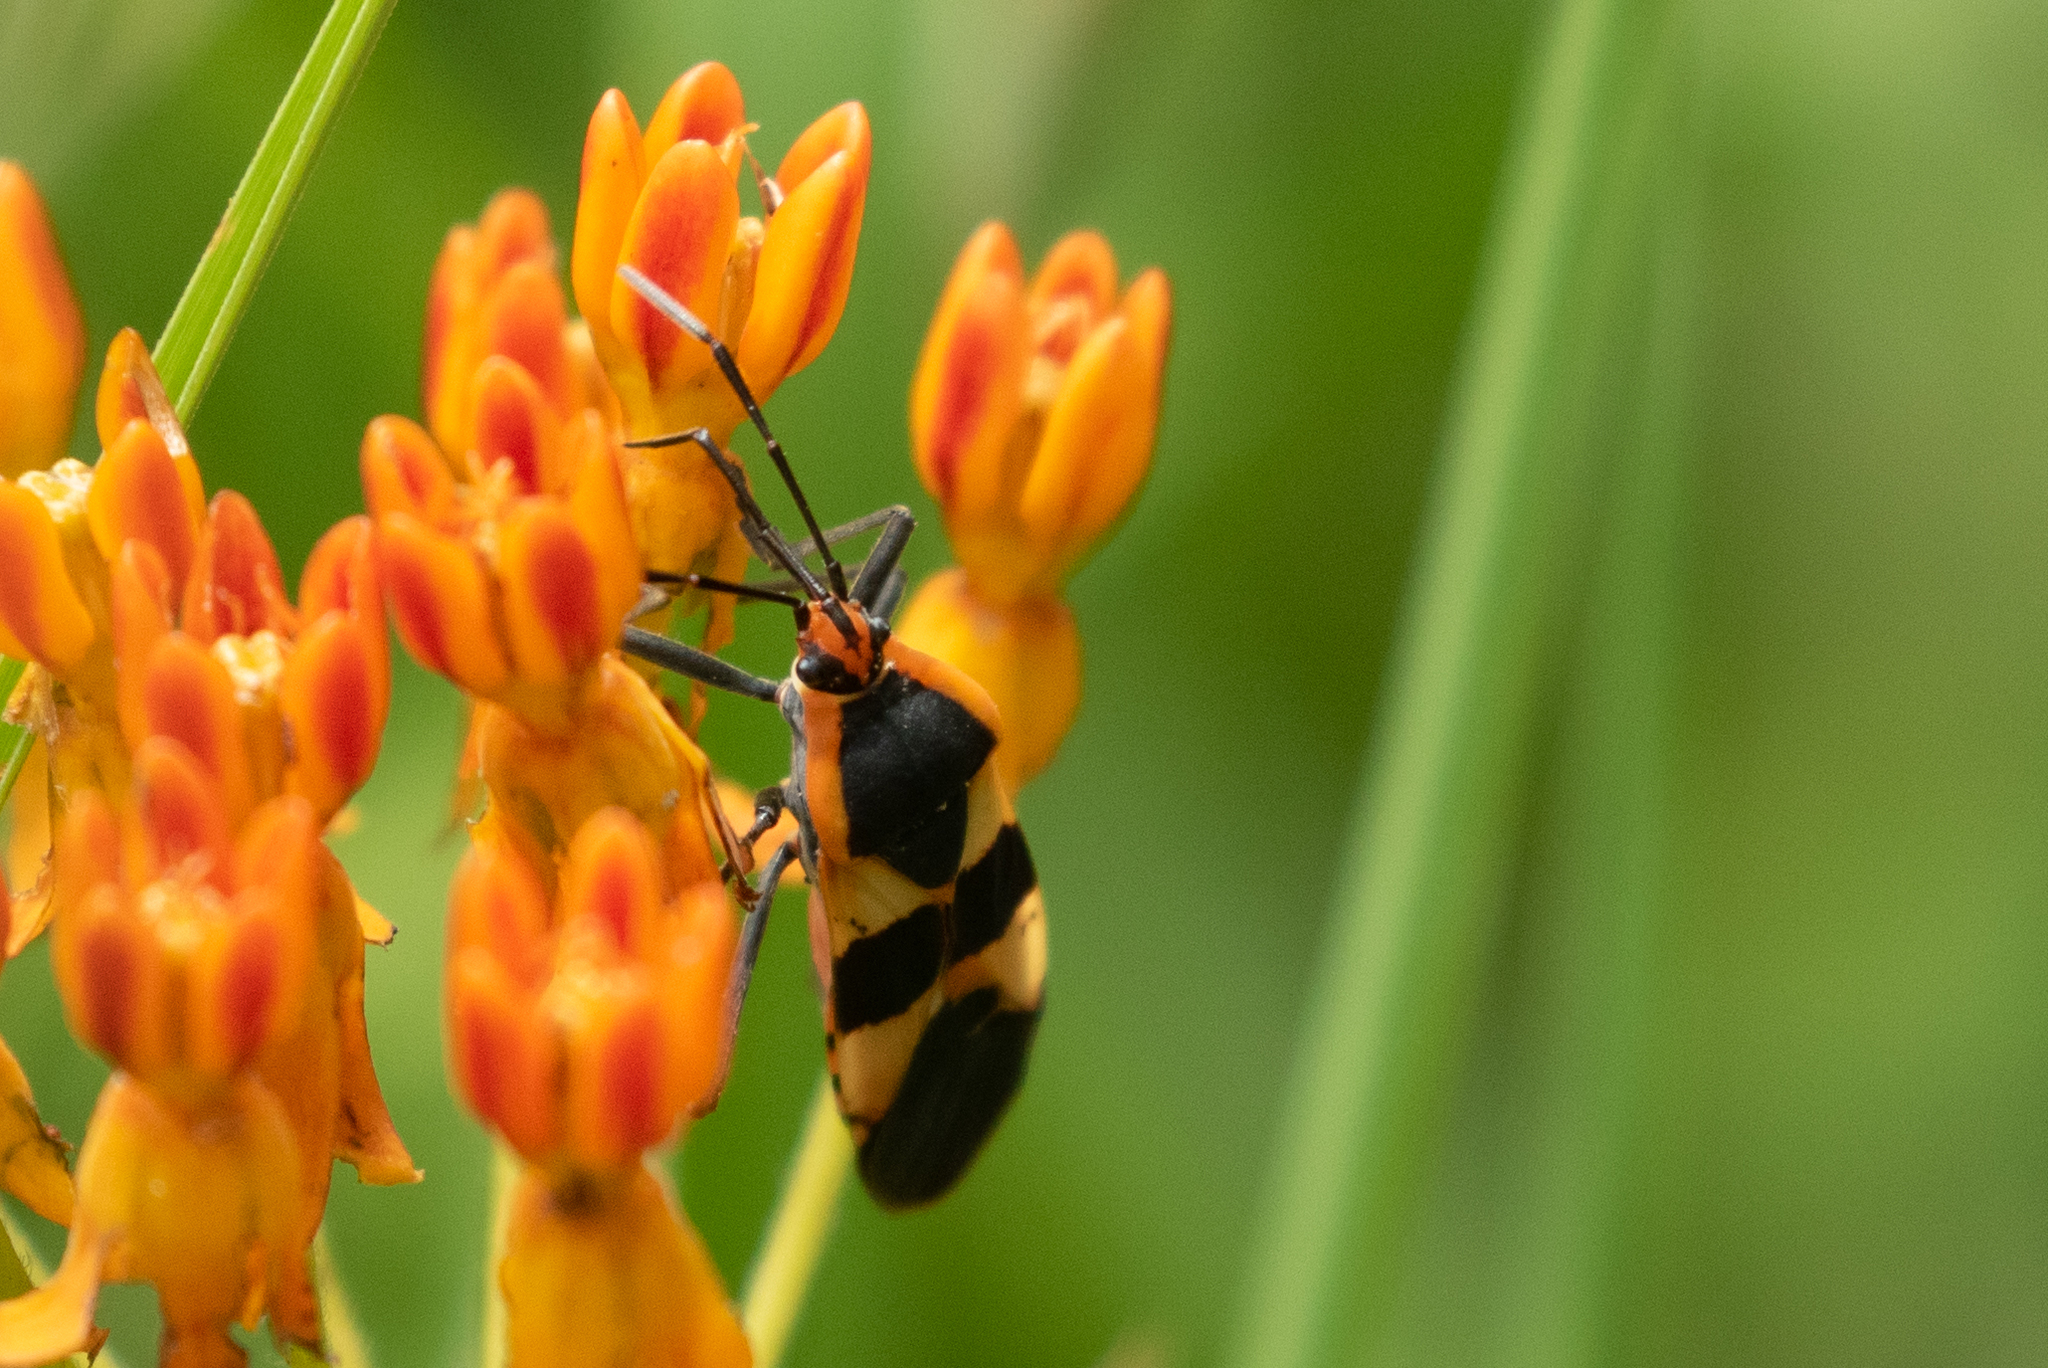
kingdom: Animalia
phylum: Arthropoda
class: Insecta
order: Hemiptera
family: Lygaeidae
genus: Oncopeltus
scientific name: Oncopeltus fasciatus
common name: Large milkweed bug
